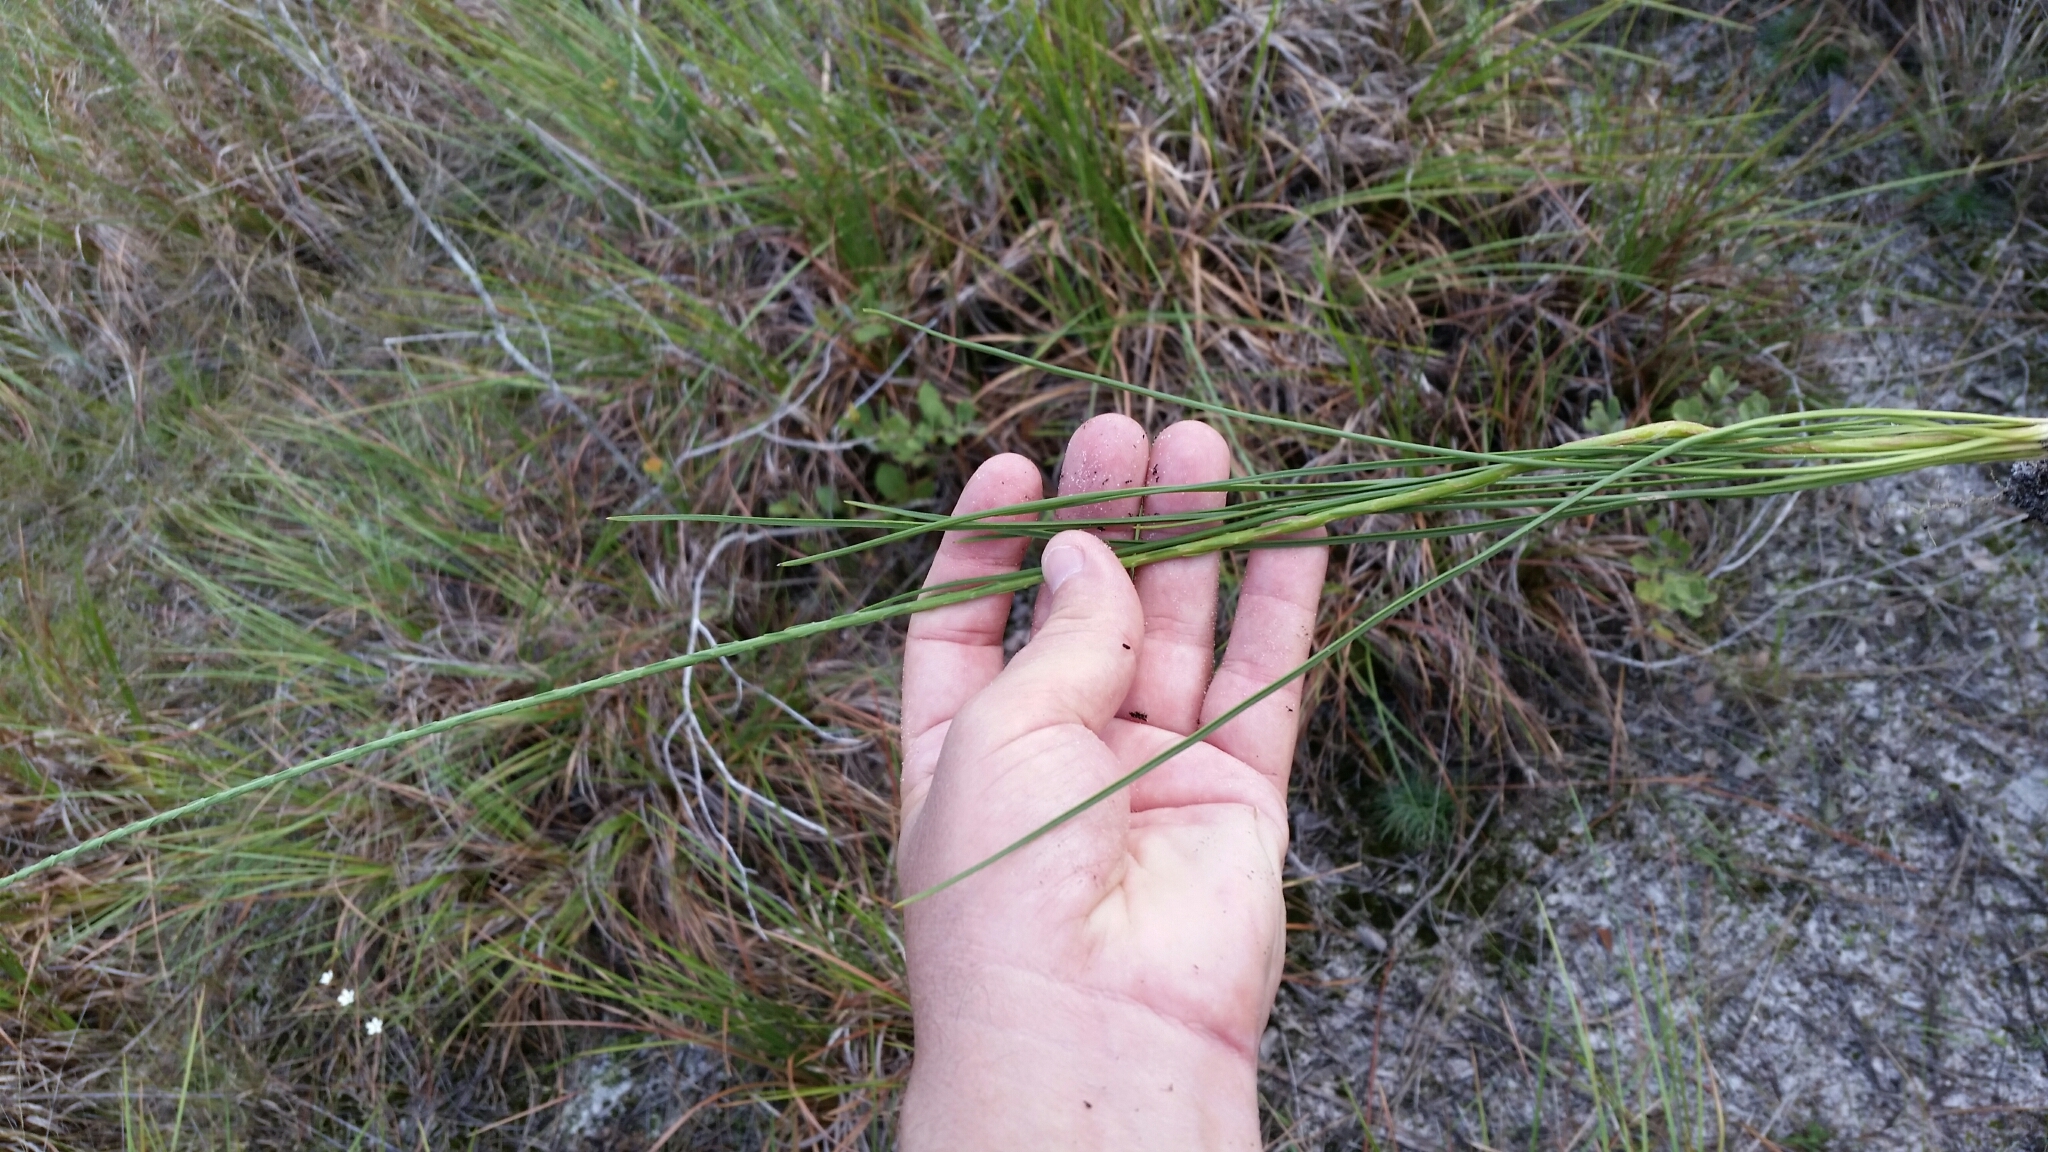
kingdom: Plantae
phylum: Tracheophyta
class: Magnoliopsida
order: Asterales
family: Asteraceae
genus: Liatris
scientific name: Liatris quadriflora
